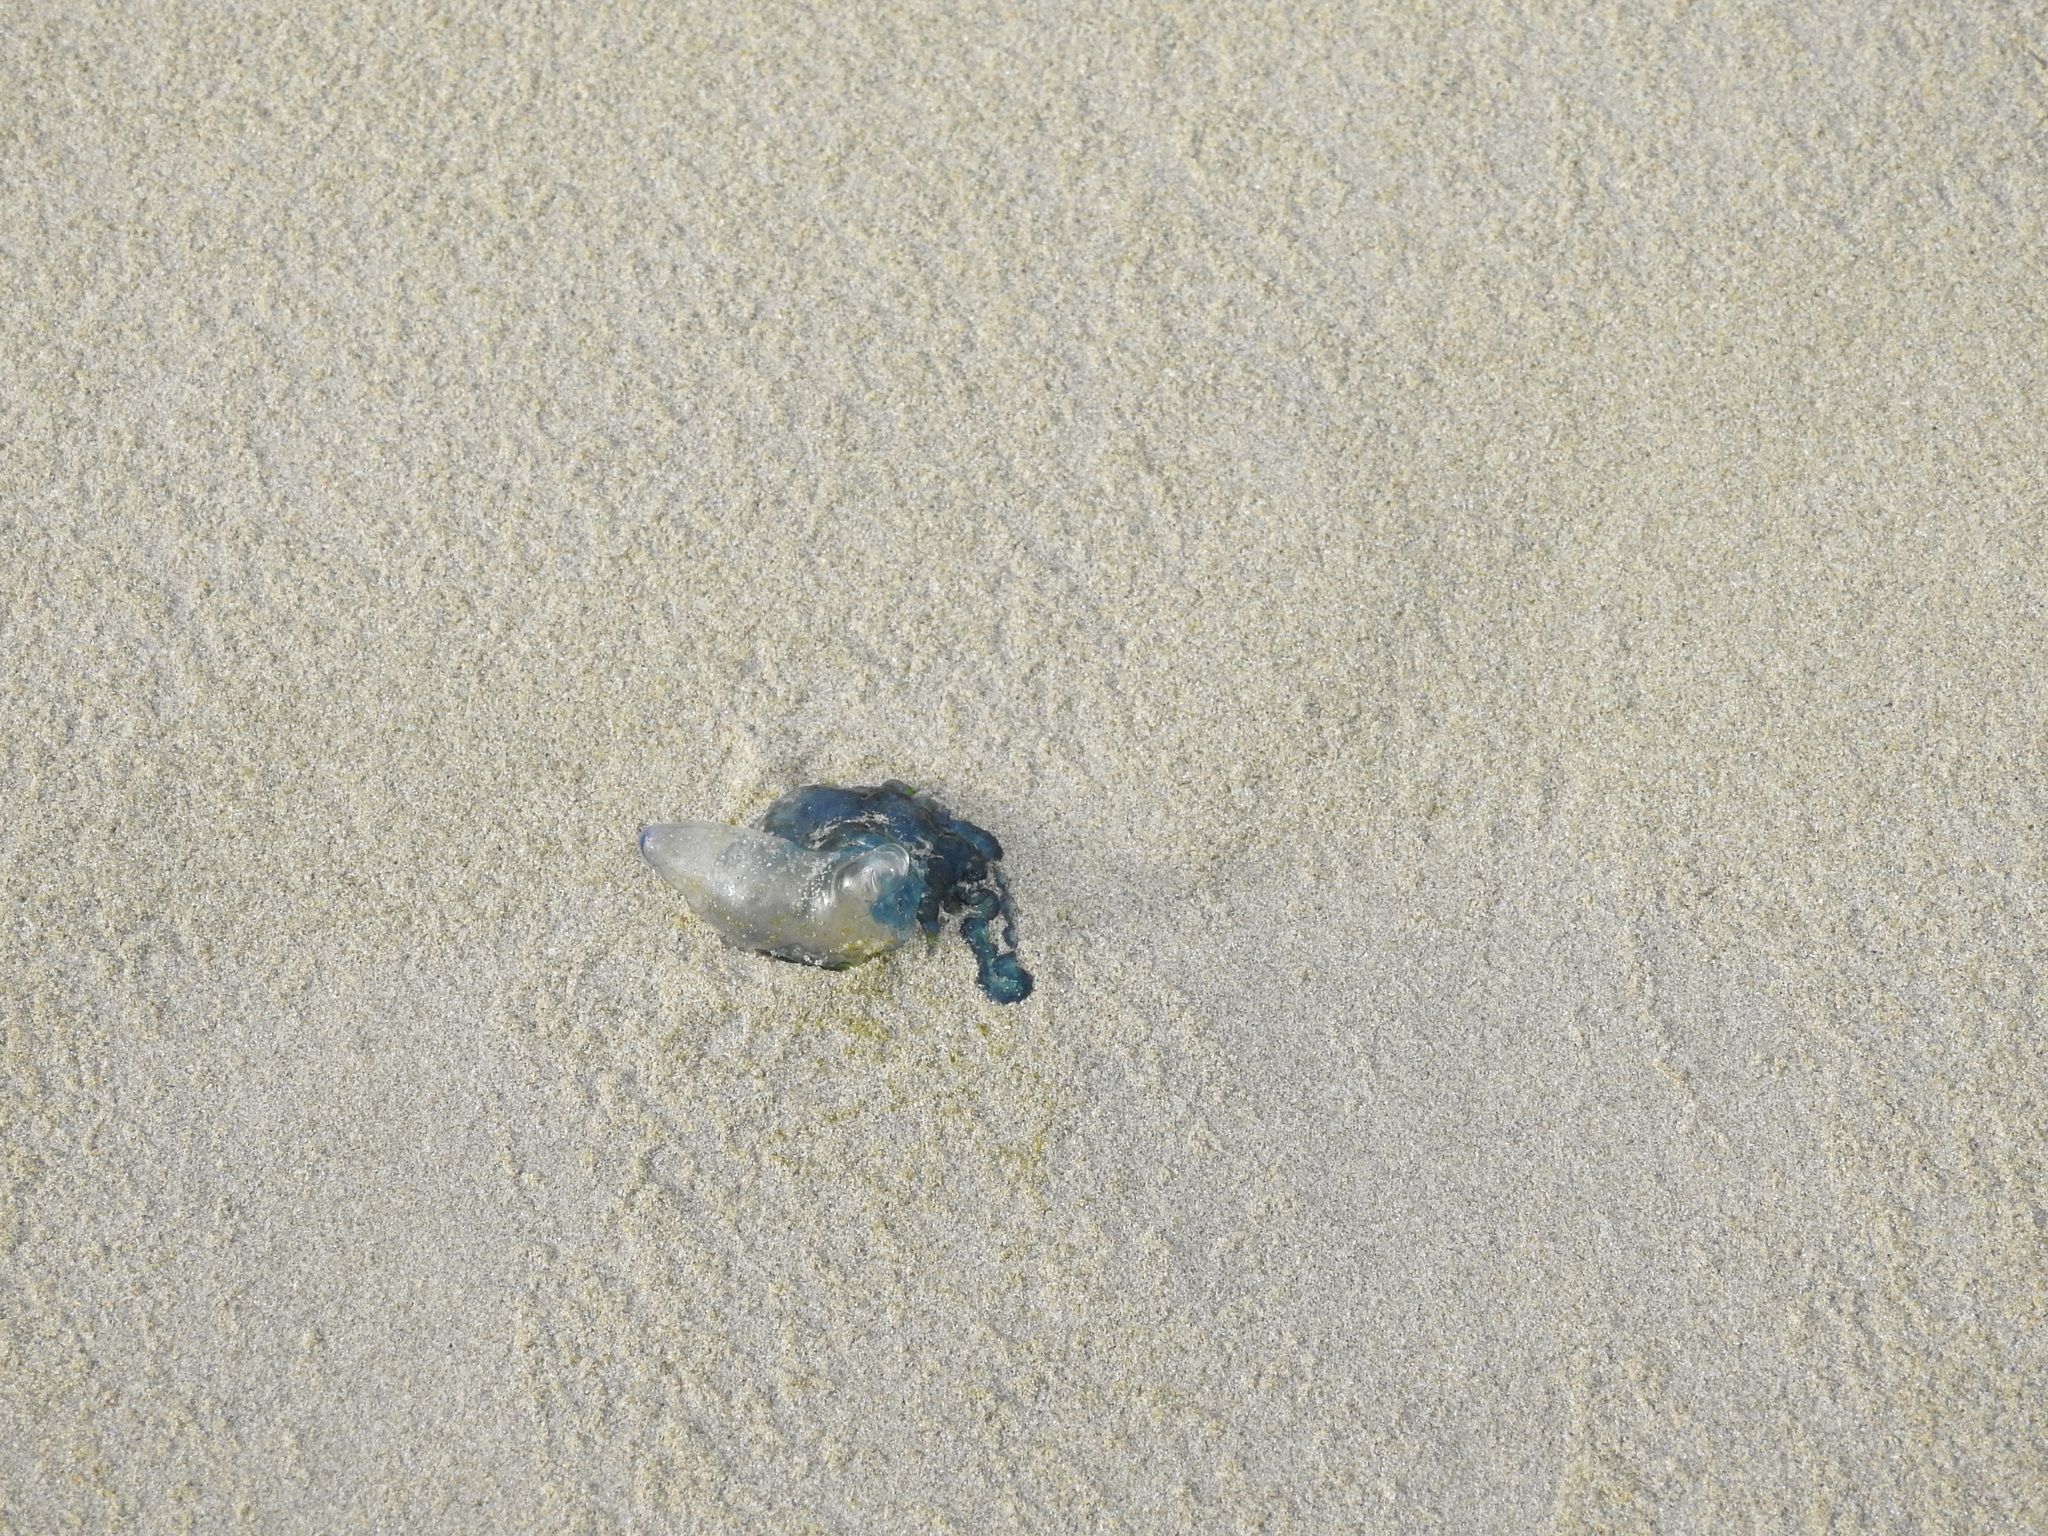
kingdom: Animalia
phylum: Cnidaria
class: Hydrozoa
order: Siphonophorae
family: Physaliidae
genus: Physalia
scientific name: Physalia physalis
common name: Portuguese man-of-war
